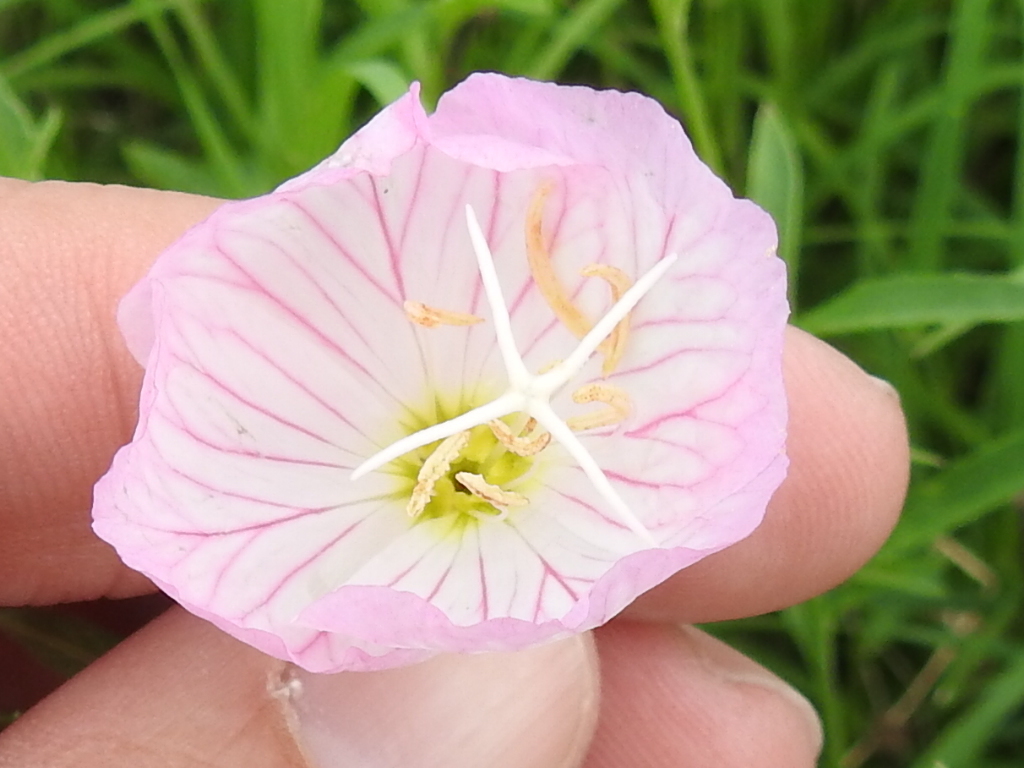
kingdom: Plantae
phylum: Tracheophyta
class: Magnoliopsida
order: Myrtales
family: Onagraceae
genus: Oenothera
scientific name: Oenothera speciosa
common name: White evening-primrose
